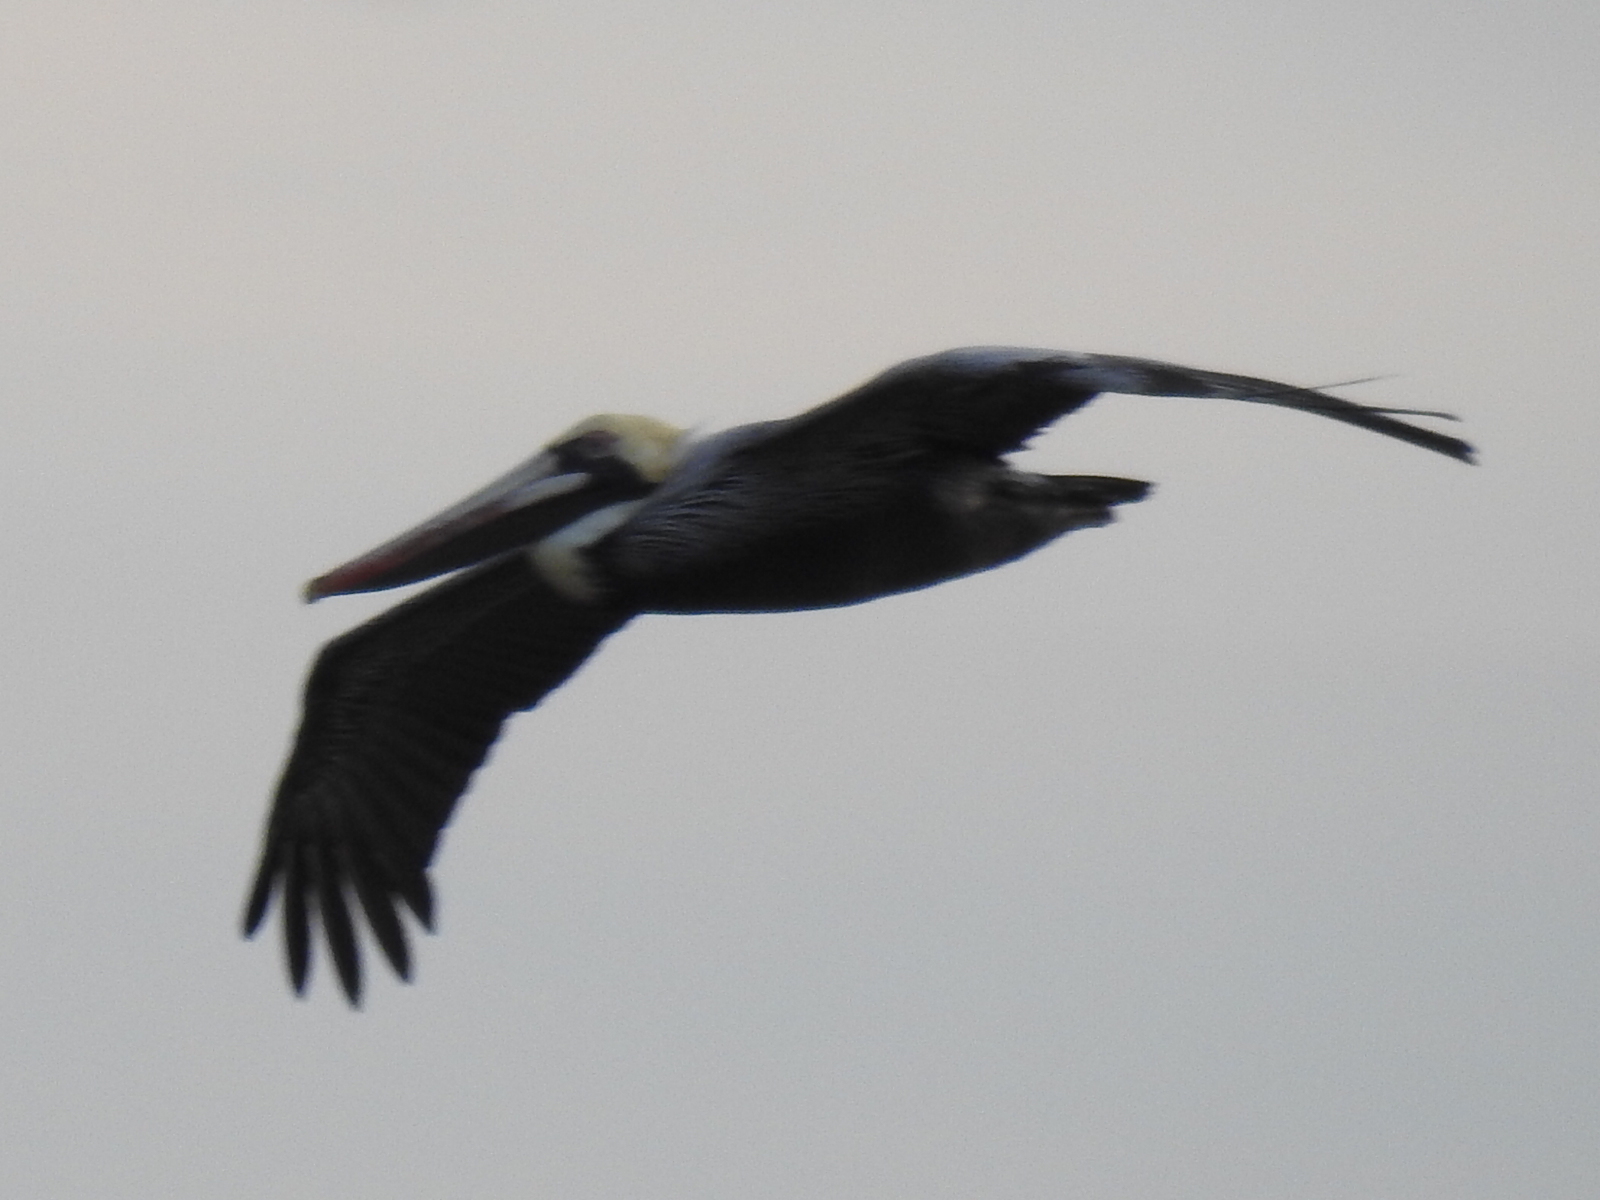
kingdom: Animalia
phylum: Chordata
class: Aves
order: Pelecaniformes
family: Pelecanidae
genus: Pelecanus
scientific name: Pelecanus occidentalis
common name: Brown pelican
